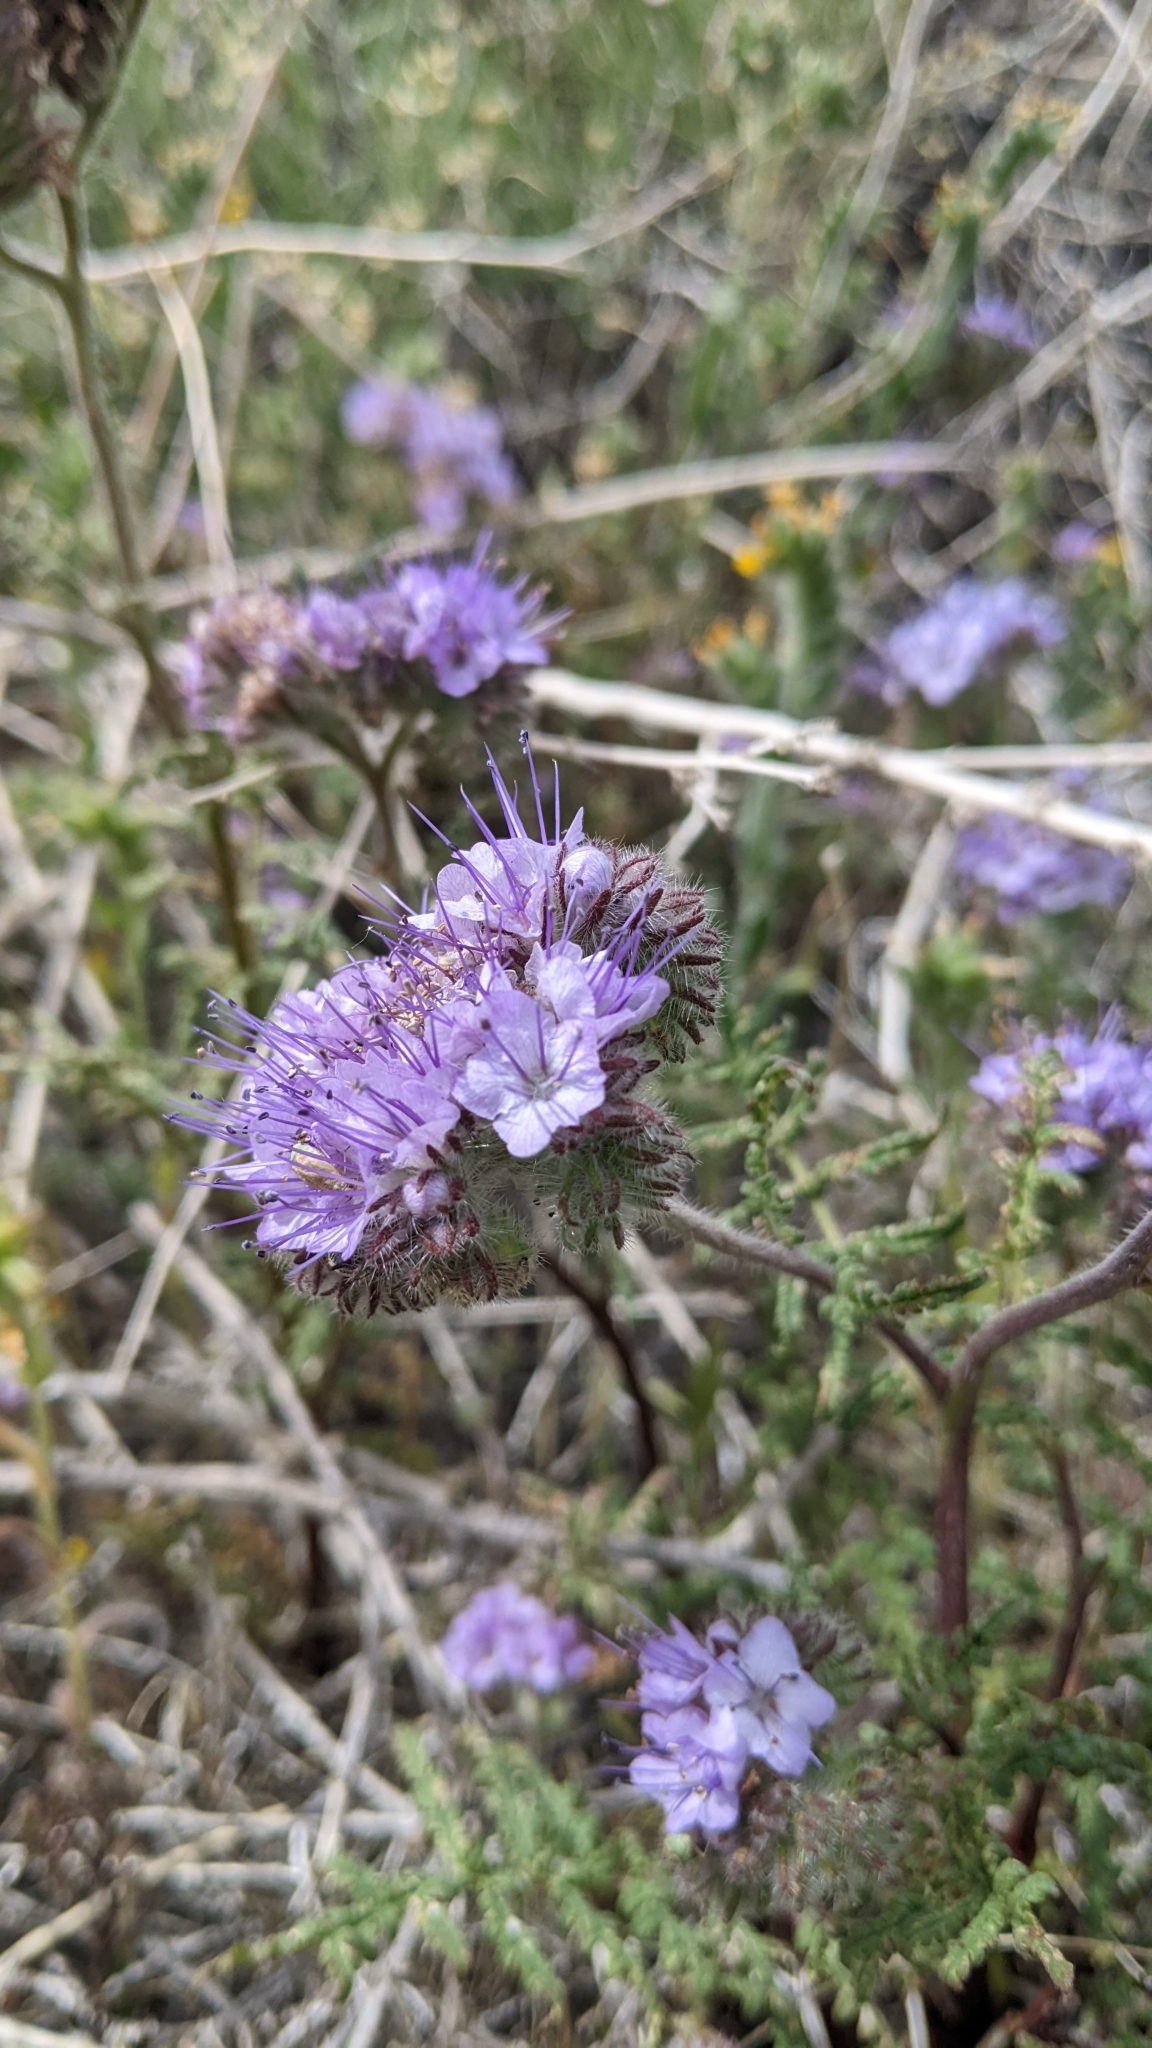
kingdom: Plantae
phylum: Tracheophyta
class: Magnoliopsida
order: Boraginales
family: Hydrophyllaceae
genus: Phacelia
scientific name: Phacelia tanacetifolia
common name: Phacelia
